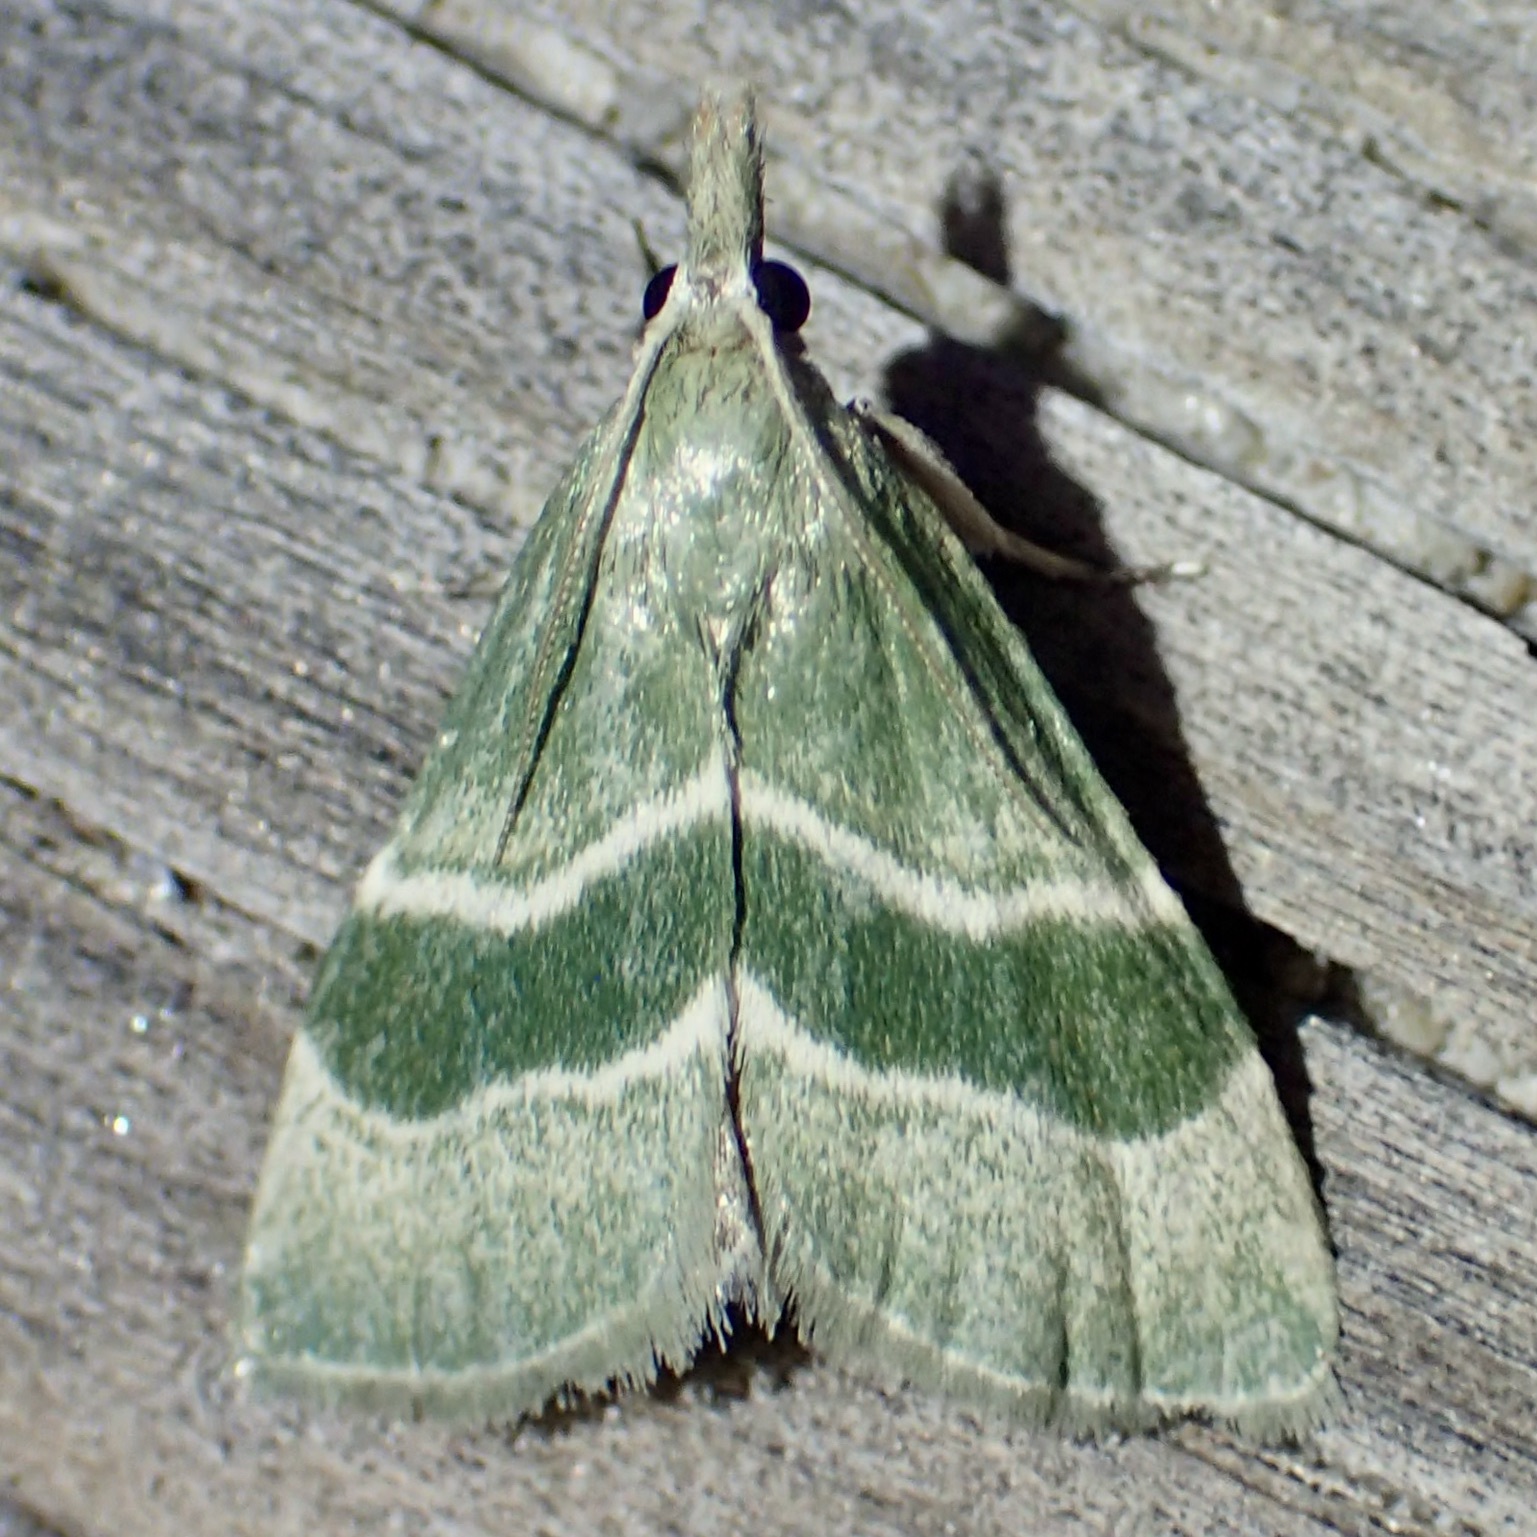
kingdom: Animalia
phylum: Arthropoda
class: Insecta
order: Lepidoptera
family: Pyralidae
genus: Anemosella
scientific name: Anemosella viridalis
